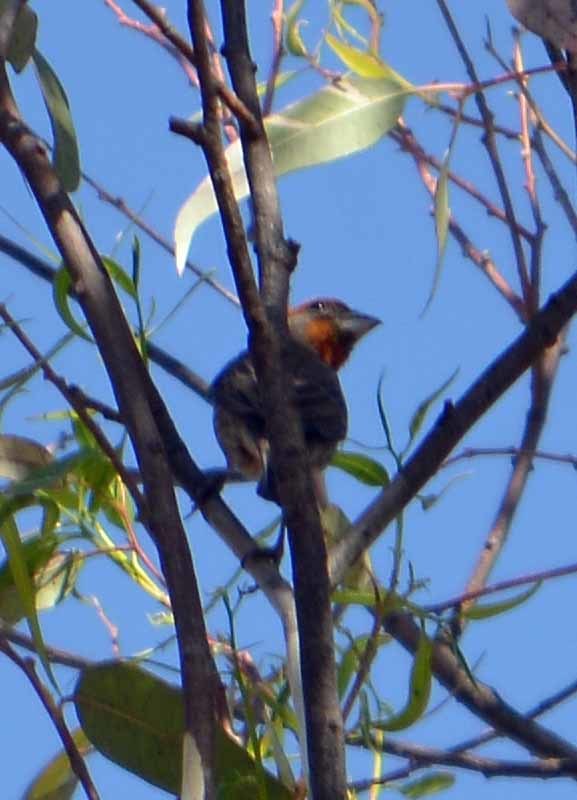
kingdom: Animalia
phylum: Chordata
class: Aves
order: Passeriformes
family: Fringillidae
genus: Haemorhous
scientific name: Haemorhous mexicanus
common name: House finch
